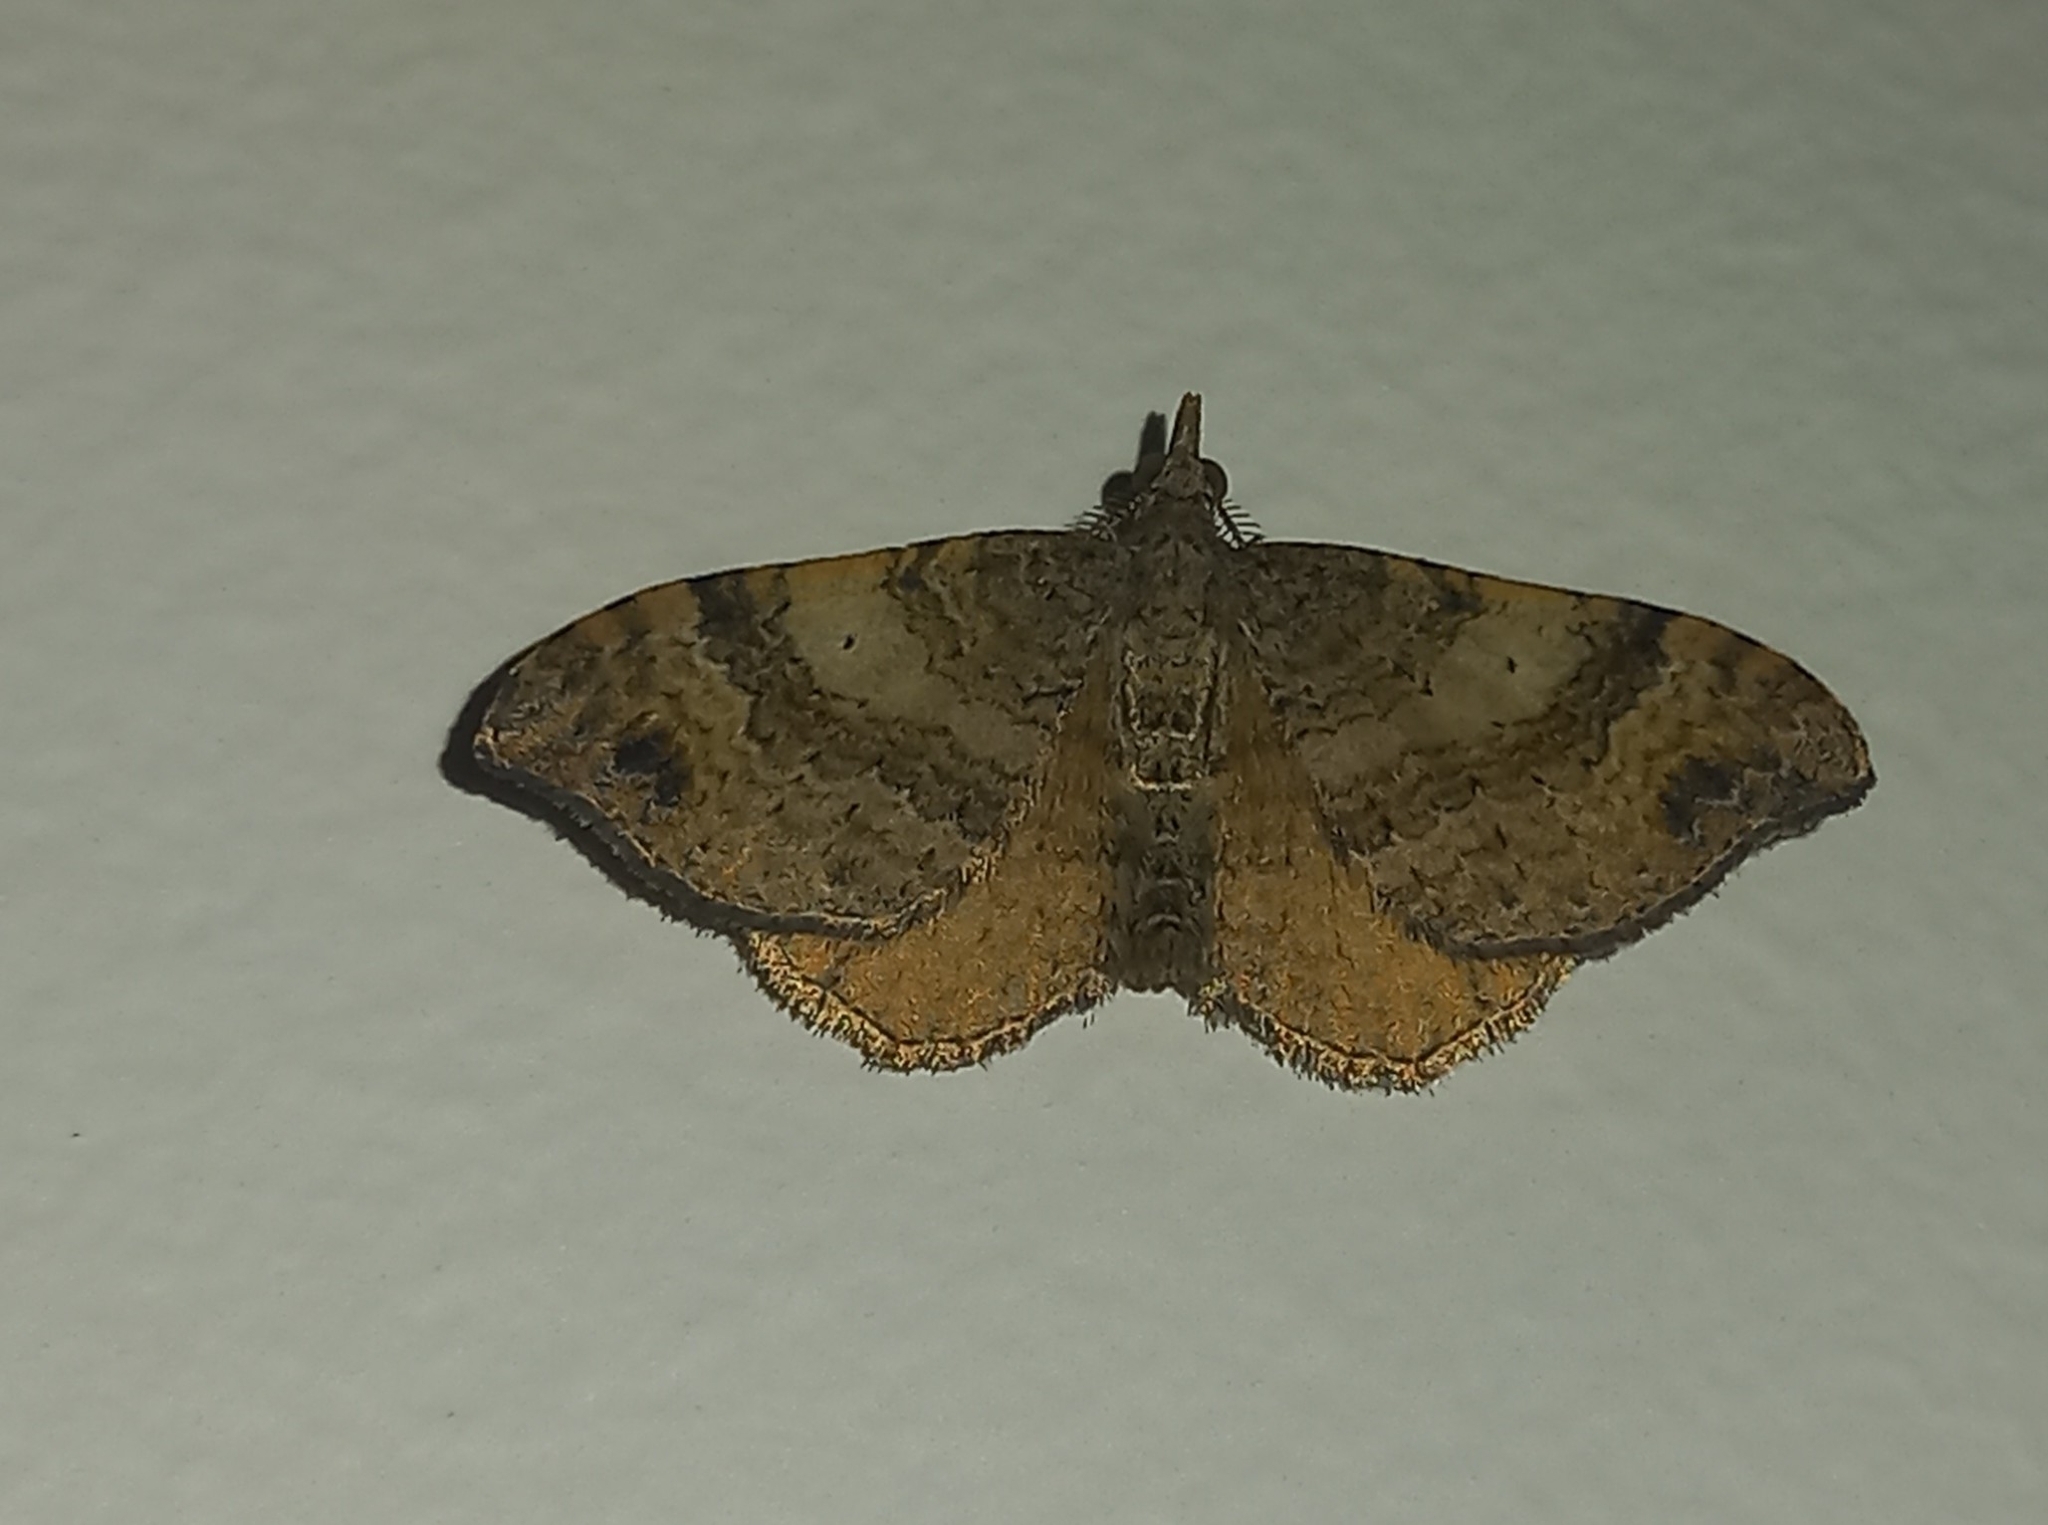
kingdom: Animalia
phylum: Arthropoda
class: Insecta
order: Lepidoptera
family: Geometridae
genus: Homodotis
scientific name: Homodotis megaspilata
